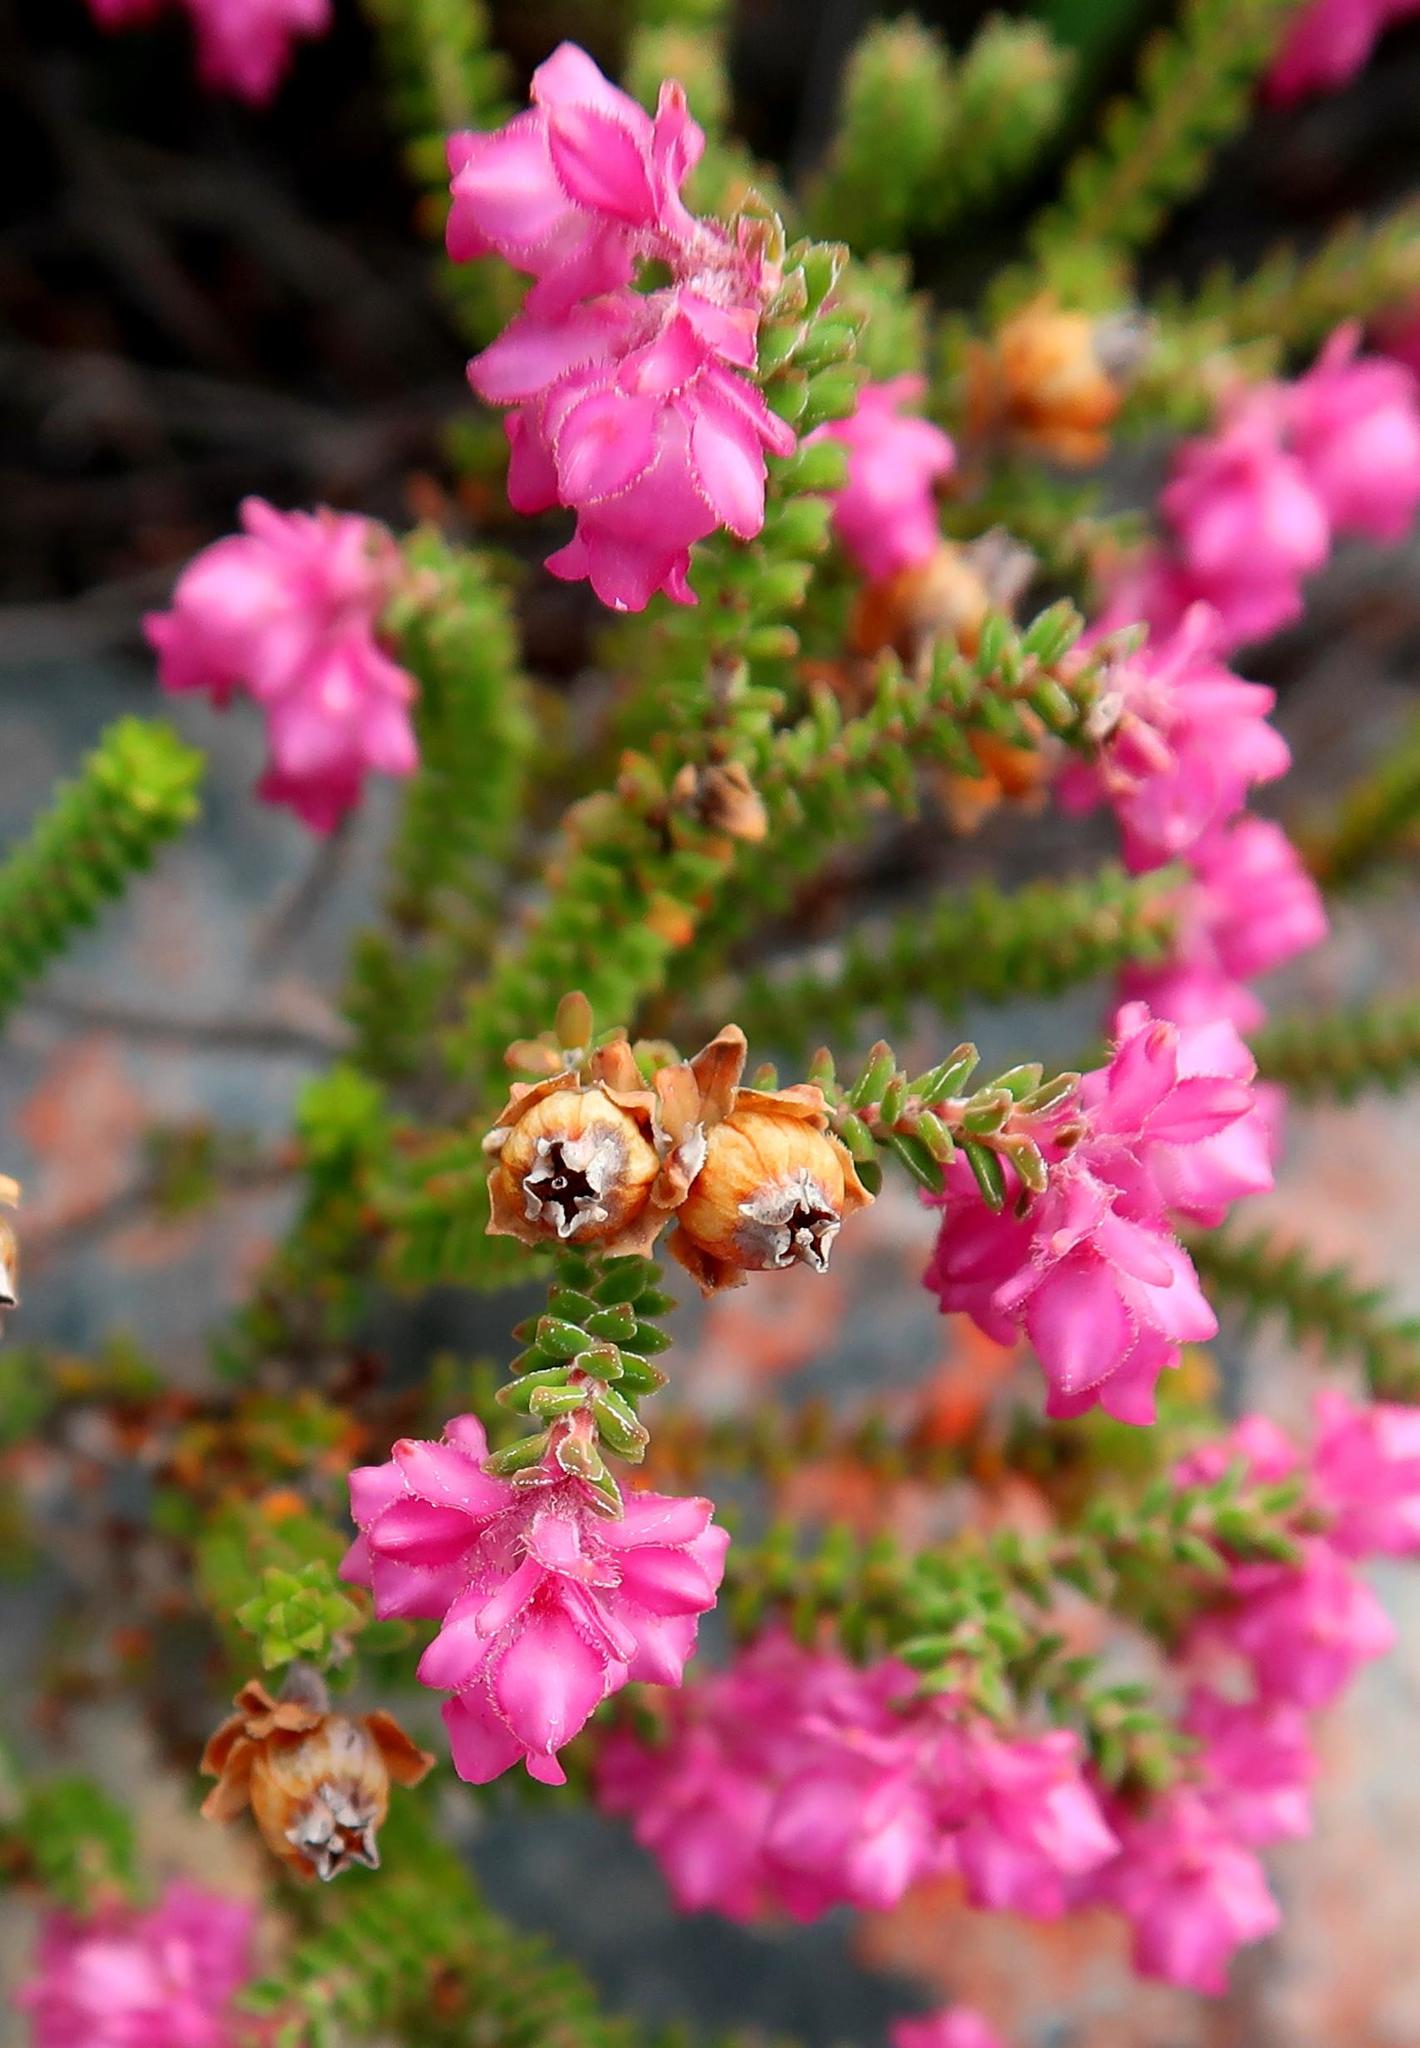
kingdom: Plantae
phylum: Tracheophyta
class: Magnoliopsida
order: Ericales
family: Ericaceae
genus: Erica
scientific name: Erica fimbriata
